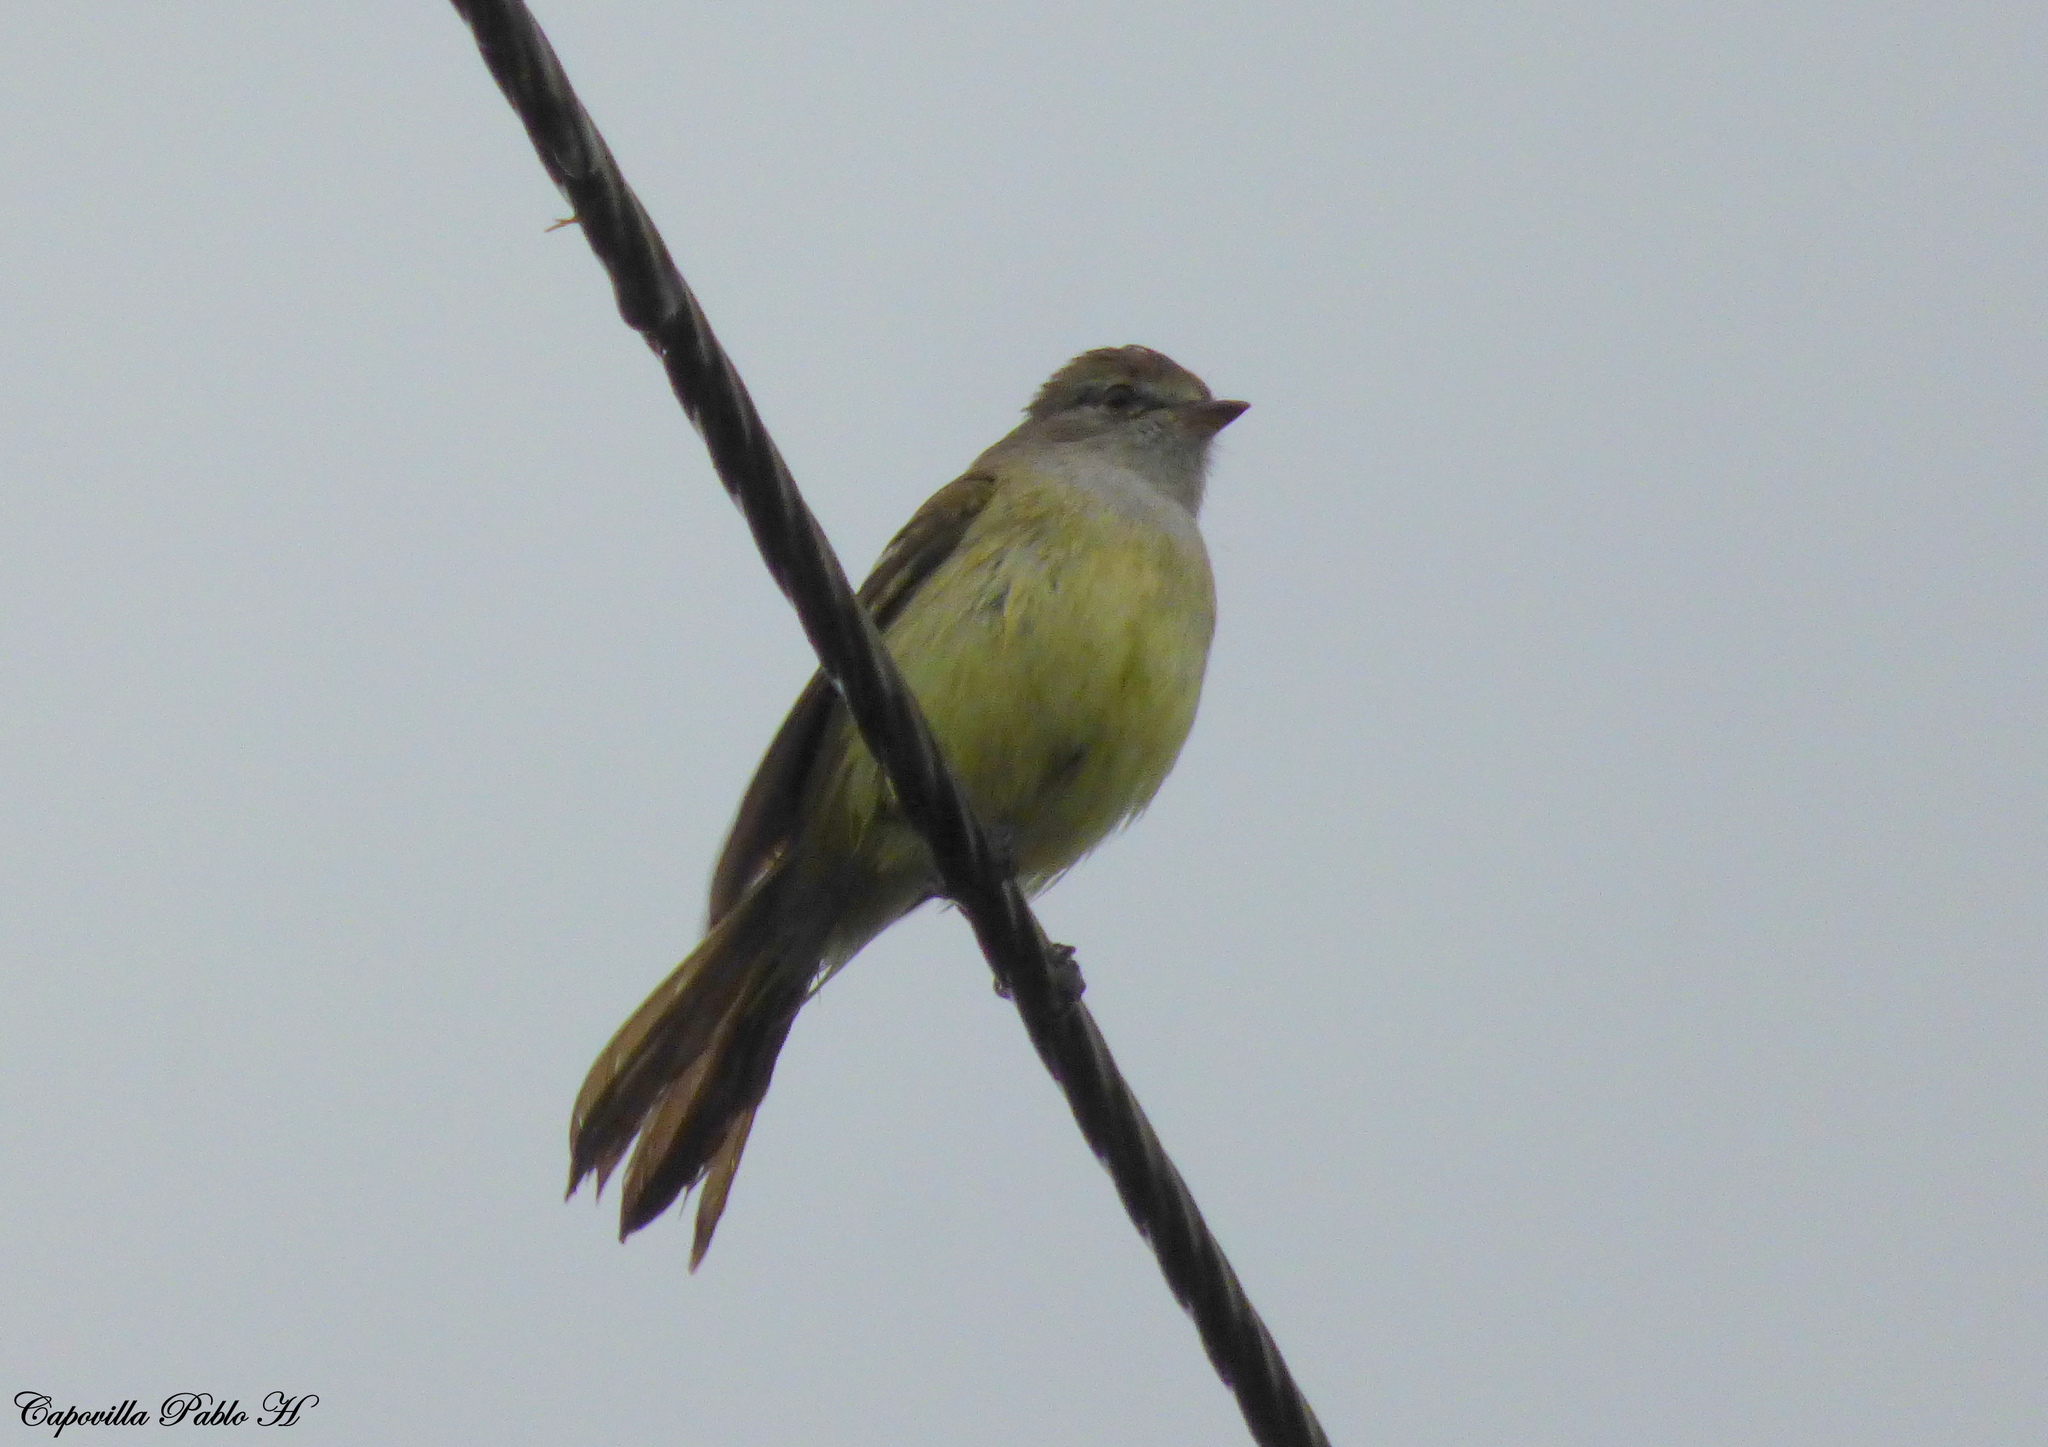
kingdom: Animalia
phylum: Chordata
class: Aves
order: Passeriformes
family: Tyrannidae
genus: Sublegatus
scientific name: Sublegatus modestus
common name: Southern scrub flycatcher
